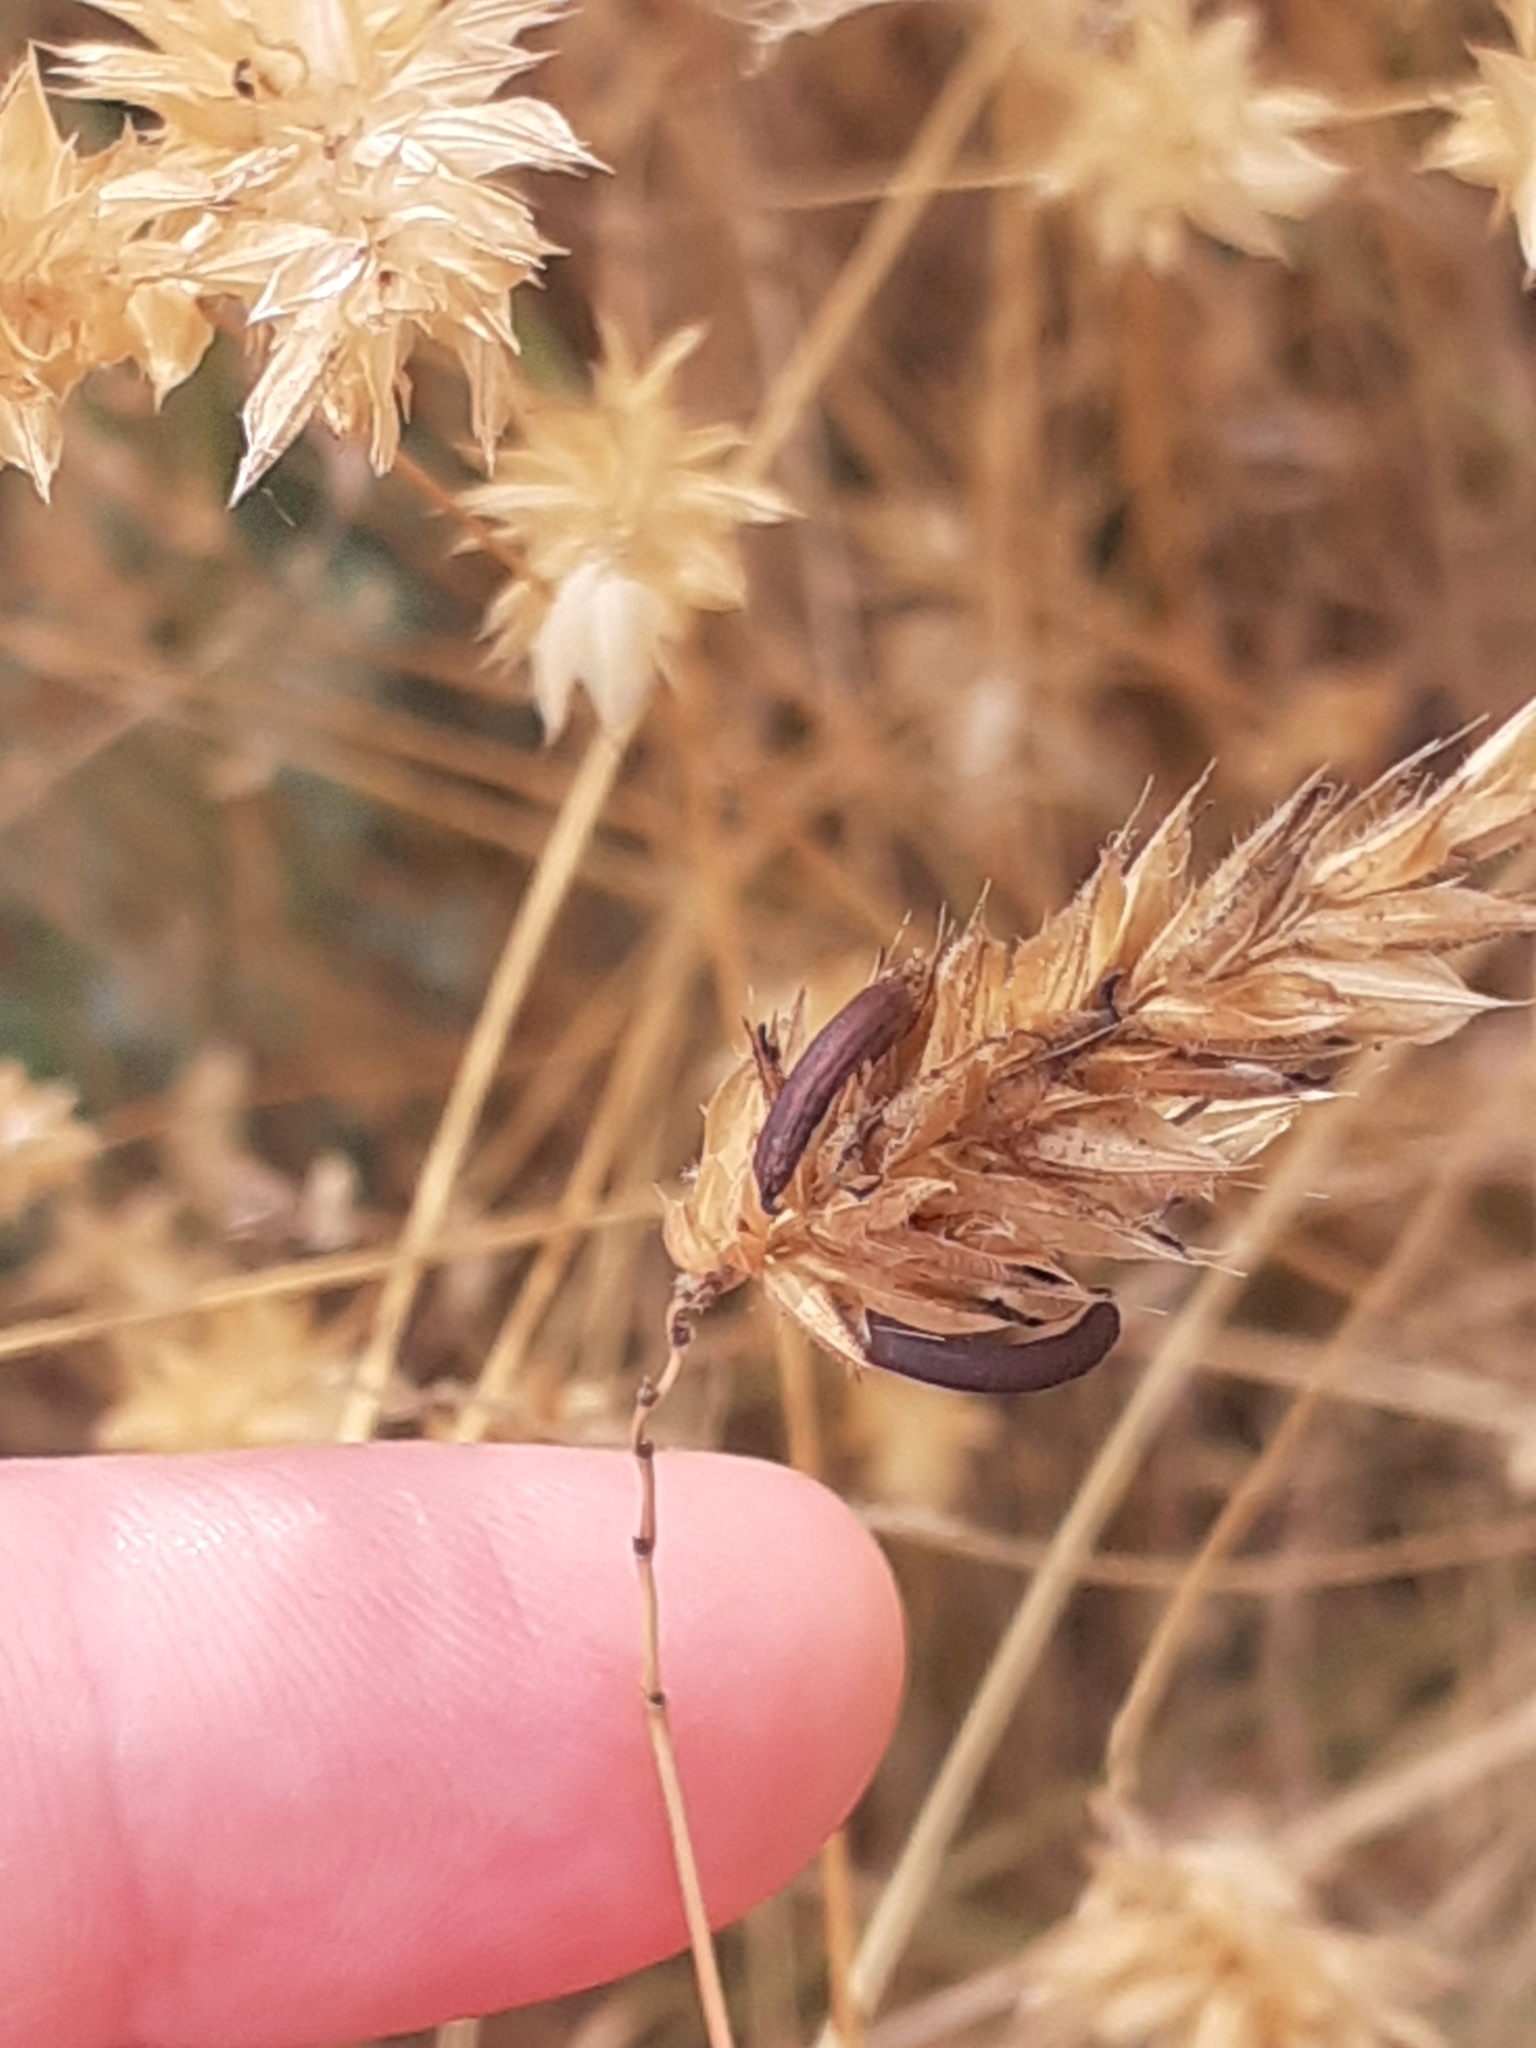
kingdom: Fungi
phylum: Ascomycota
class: Sordariomycetes
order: Hypocreales
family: Clavicipitaceae
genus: Claviceps
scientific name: Claviceps purpurea
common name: Rye ergot
